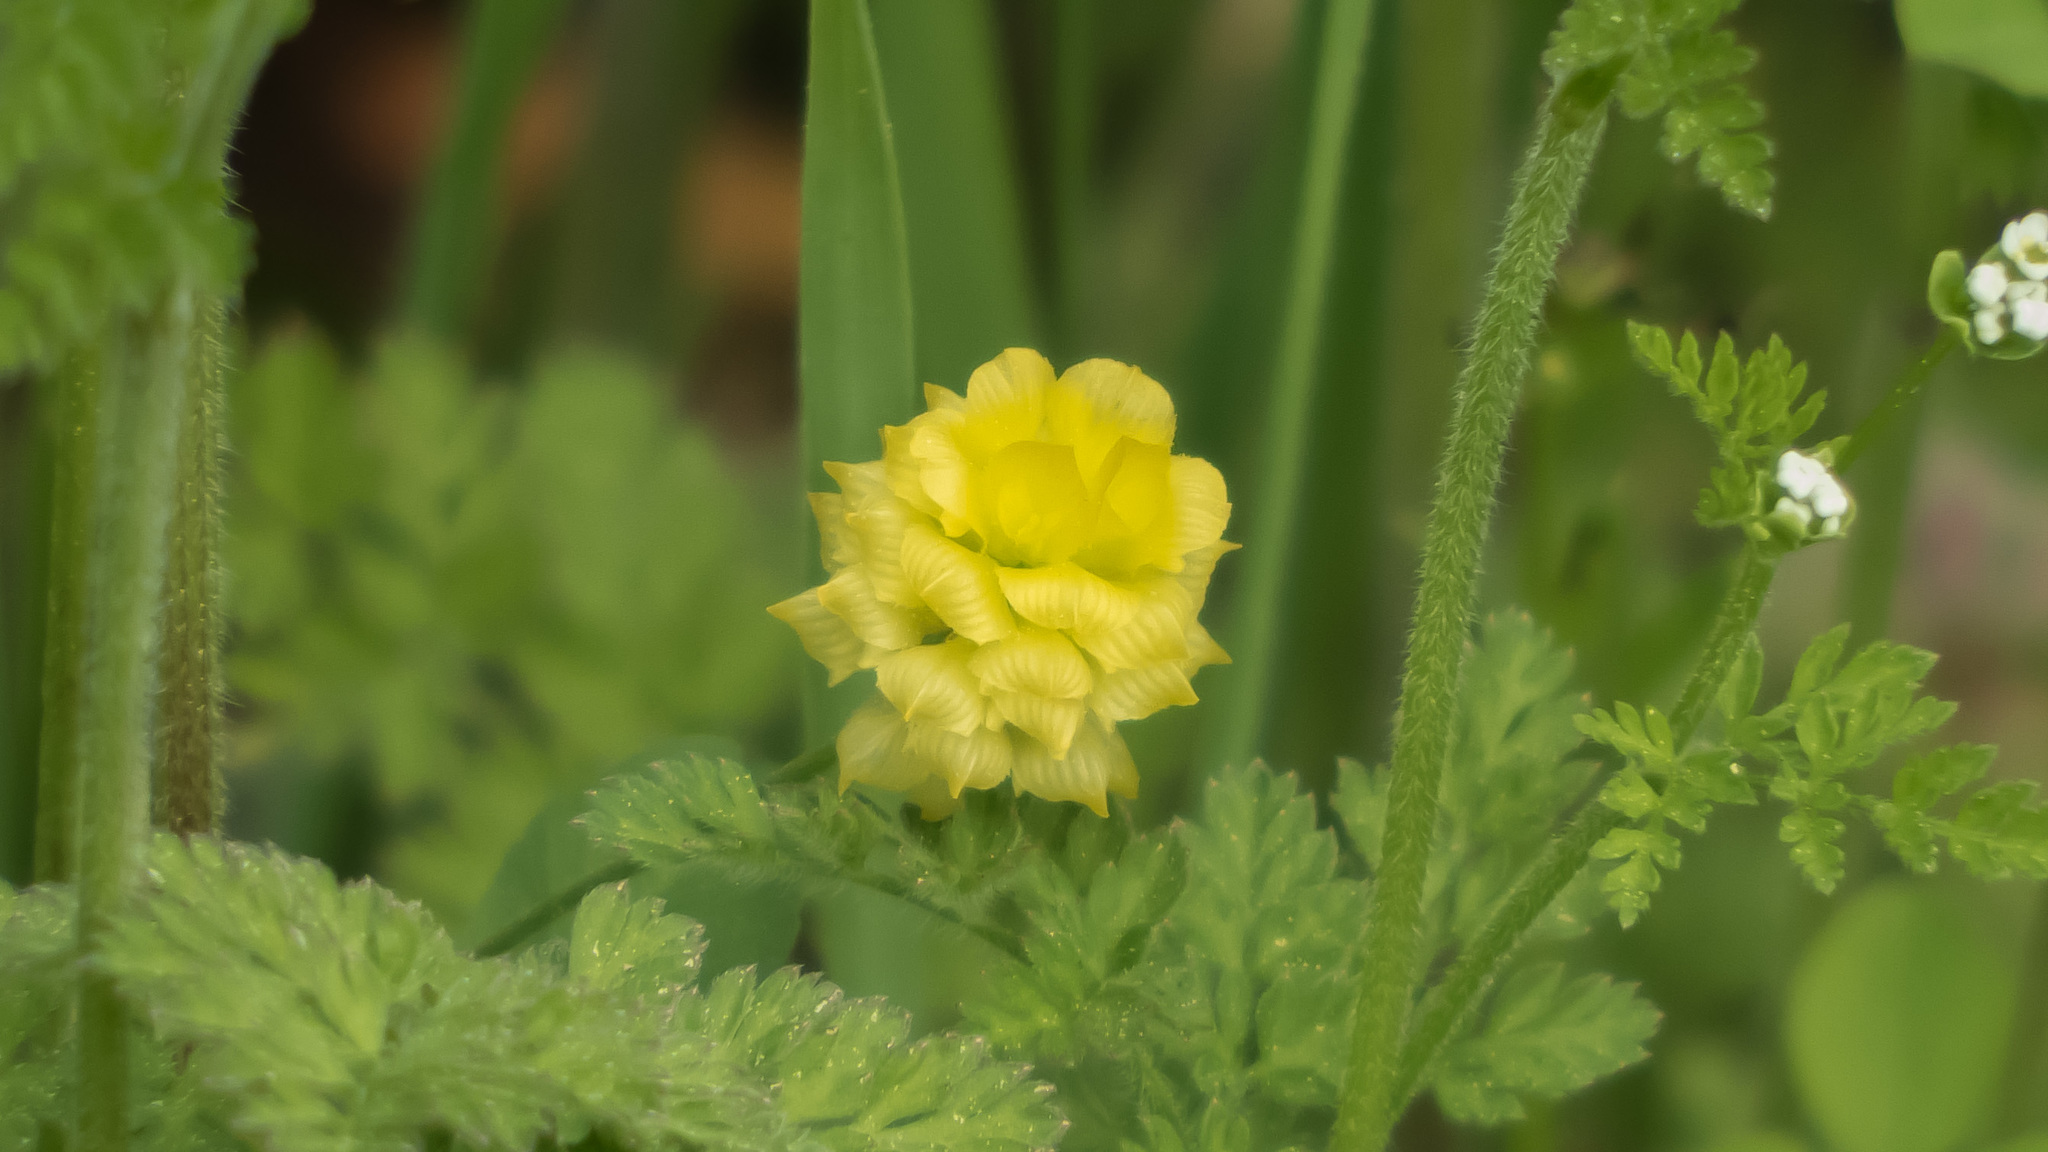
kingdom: Plantae
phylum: Tracheophyta
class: Magnoliopsida
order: Fabales
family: Fabaceae
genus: Trifolium
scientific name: Trifolium campestre
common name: Field clover
